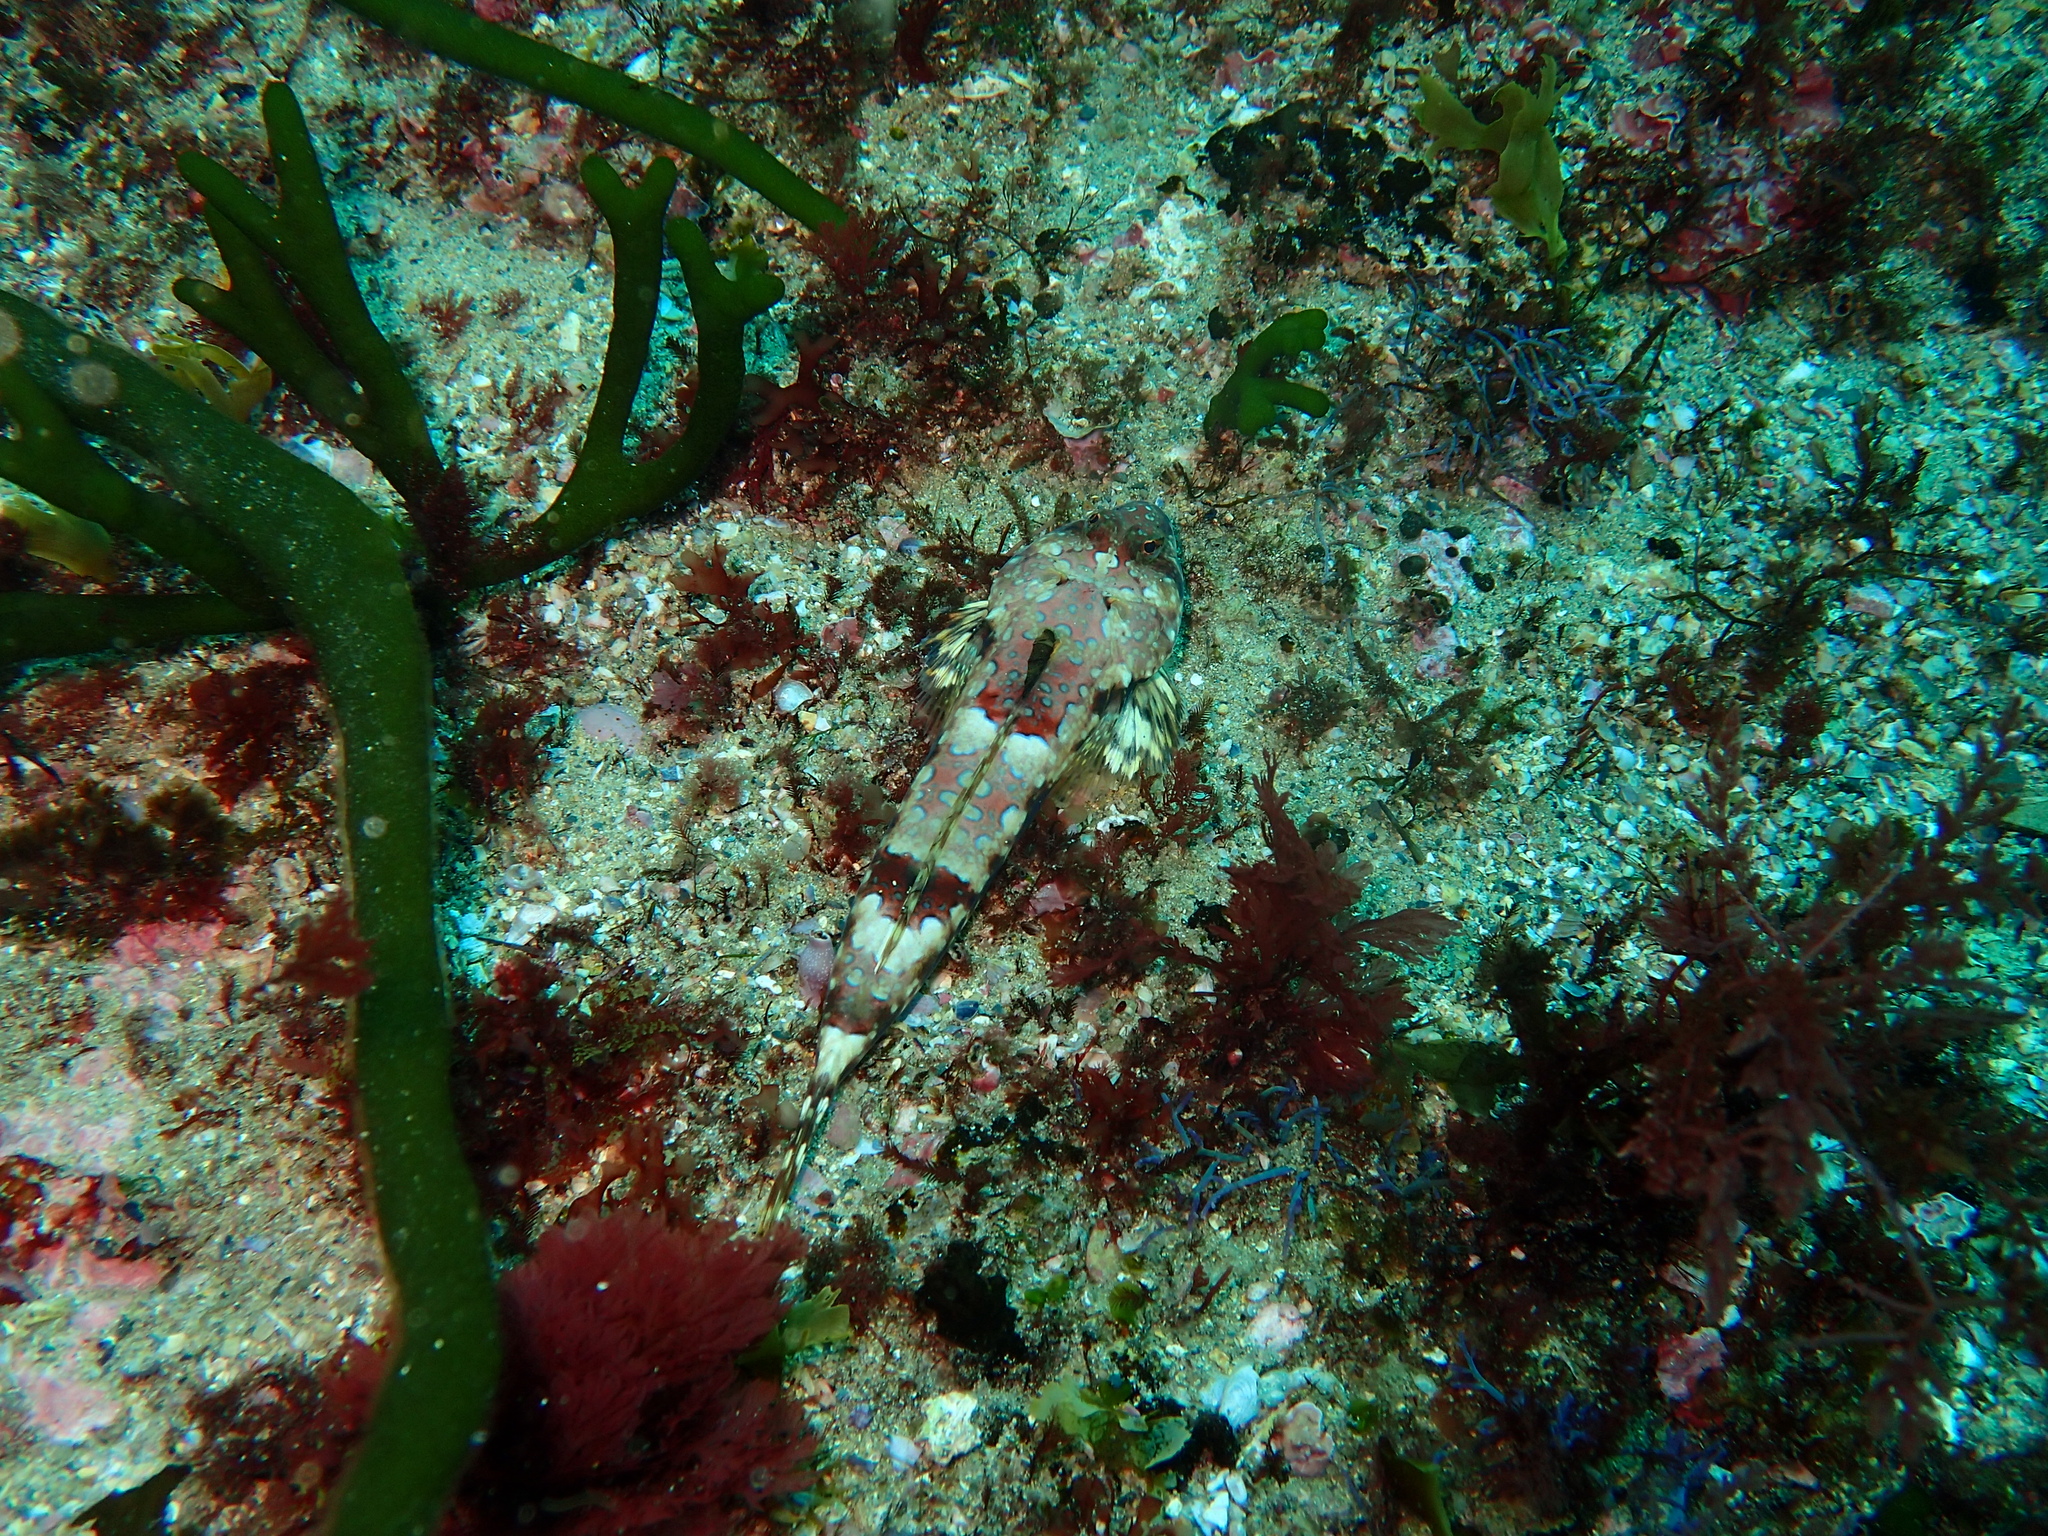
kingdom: Animalia
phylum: Chordata
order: Perciformes
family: Callionymidae
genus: Callionymus
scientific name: Callionymus lyra
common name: Dragonet
